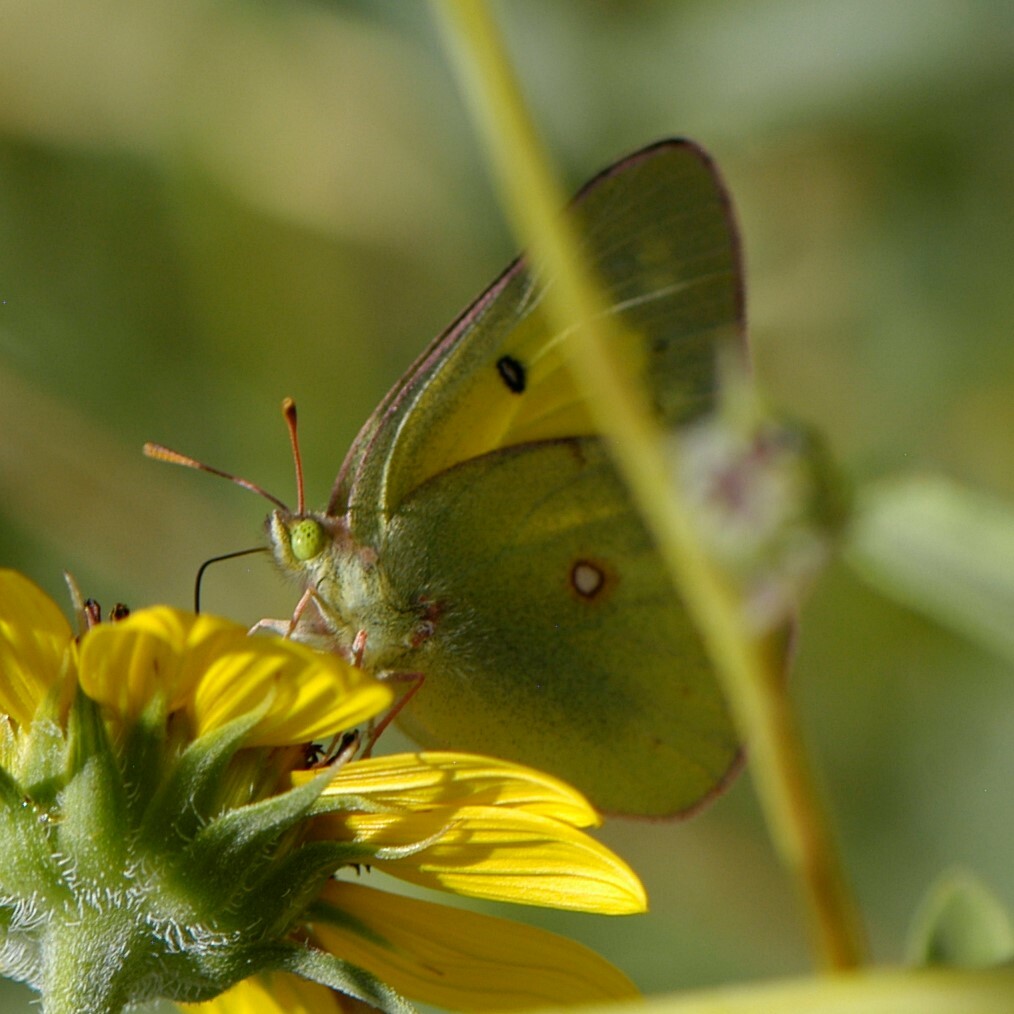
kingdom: Animalia
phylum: Arthropoda
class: Insecta
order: Lepidoptera
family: Pieridae
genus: Colias
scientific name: Colias eurytheme
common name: Alfalfa butterfly
